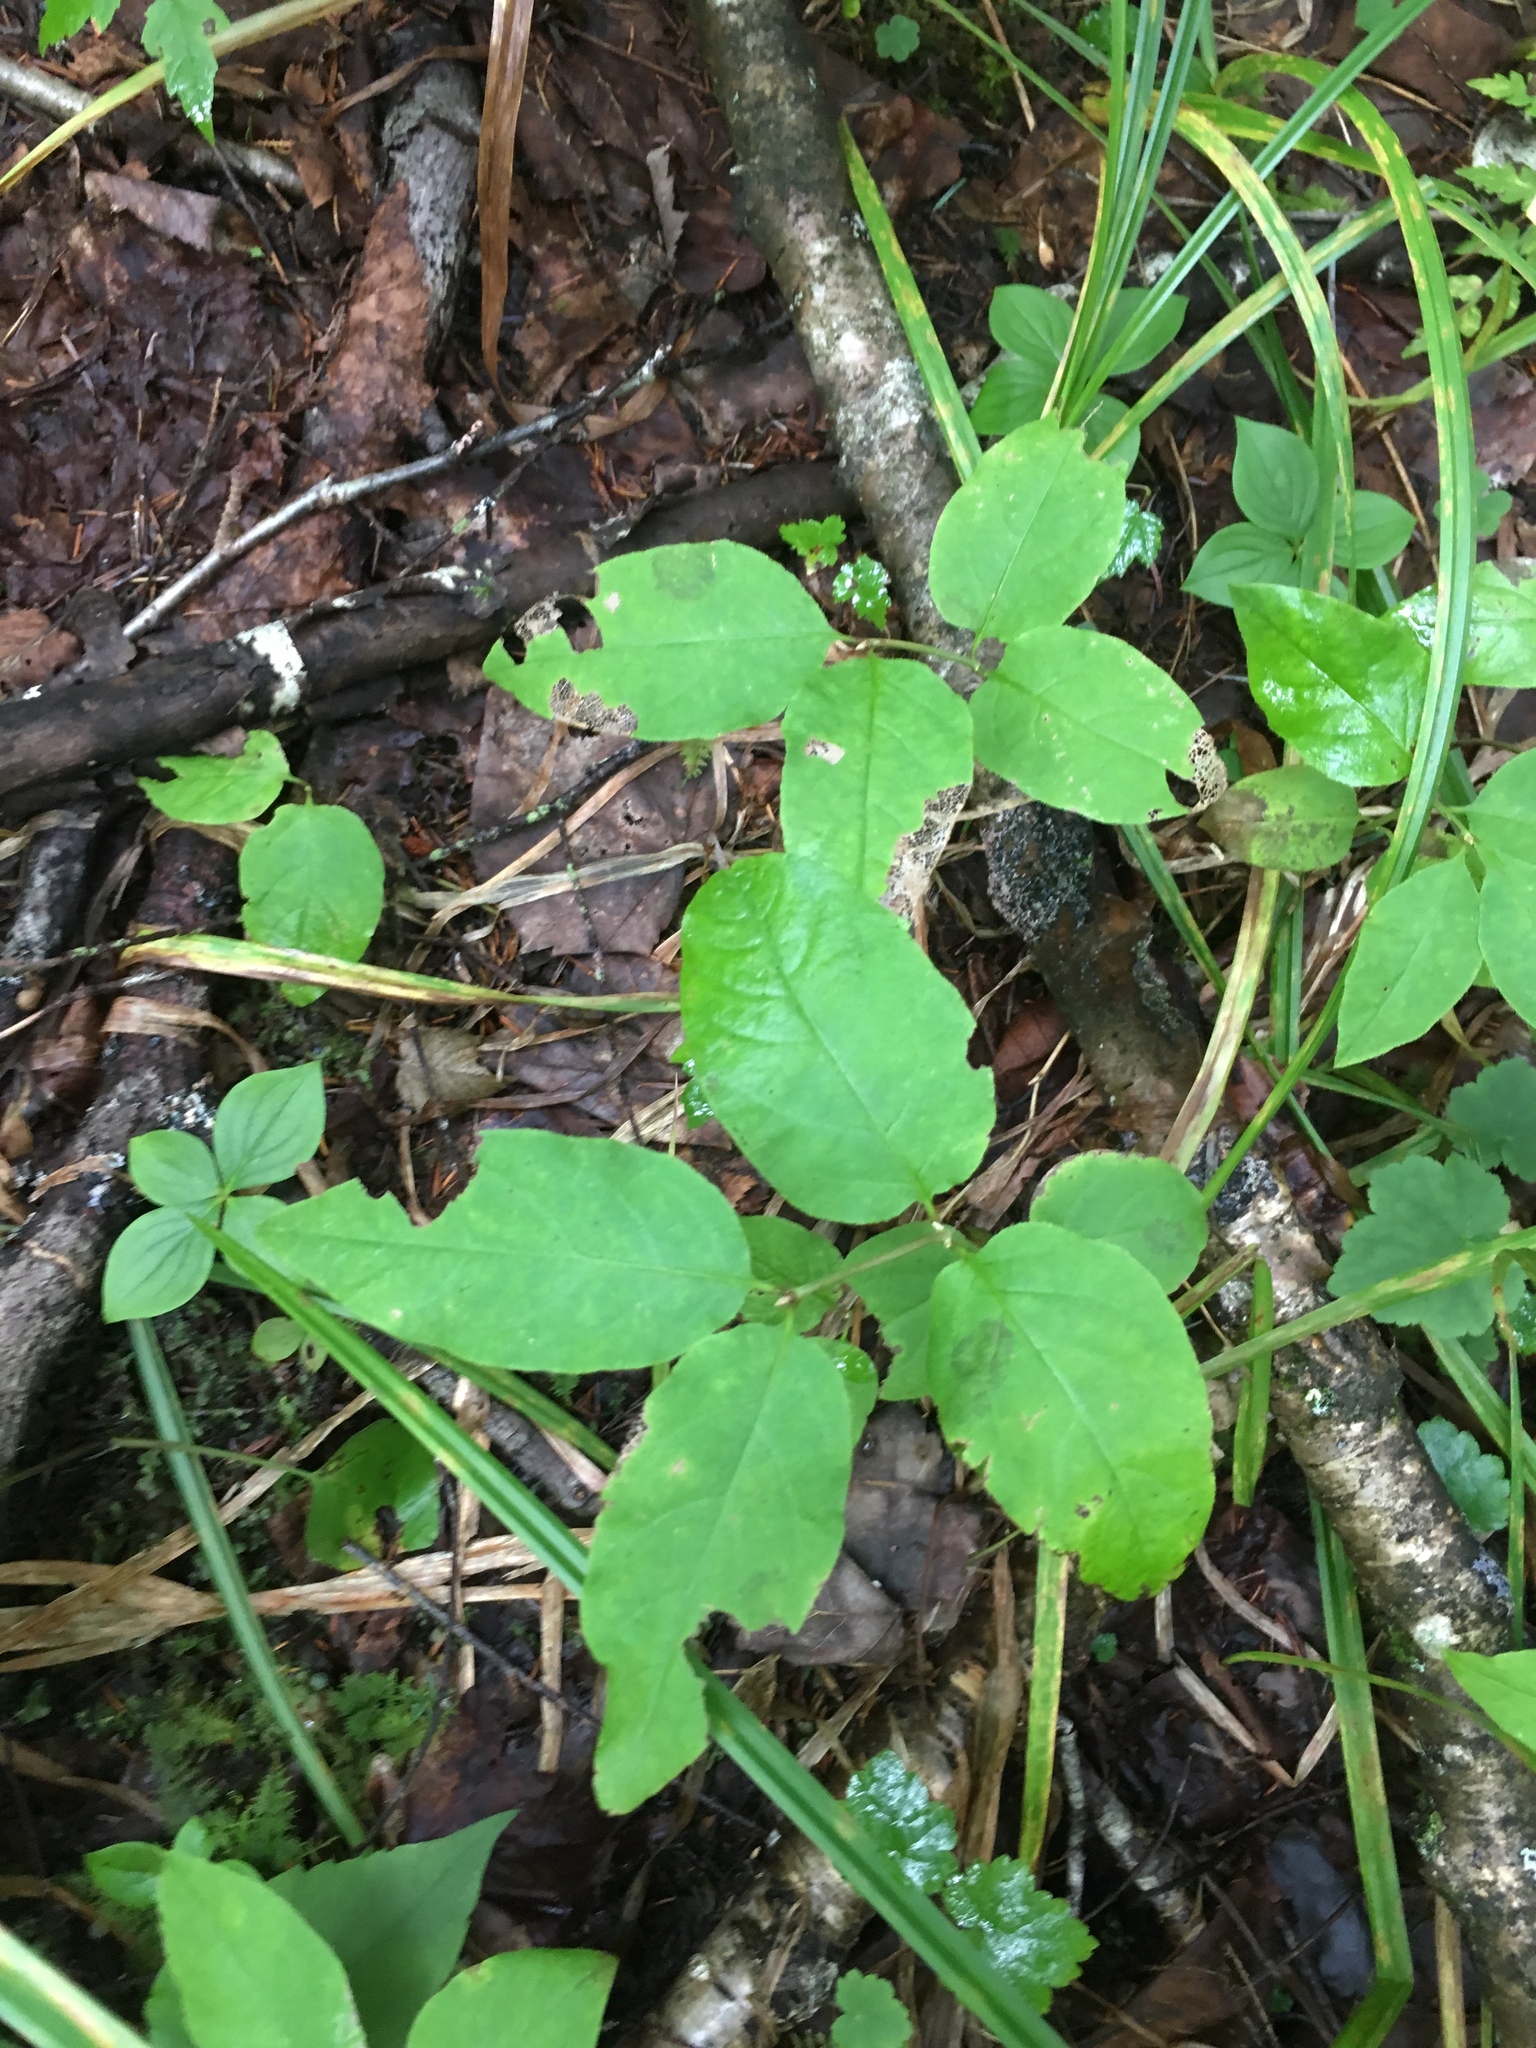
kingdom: Plantae
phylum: Tracheophyta
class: Magnoliopsida
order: Dipsacales
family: Caprifoliaceae
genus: Lonicera
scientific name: Lonicera canadensis
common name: American fly-honeysuckle
